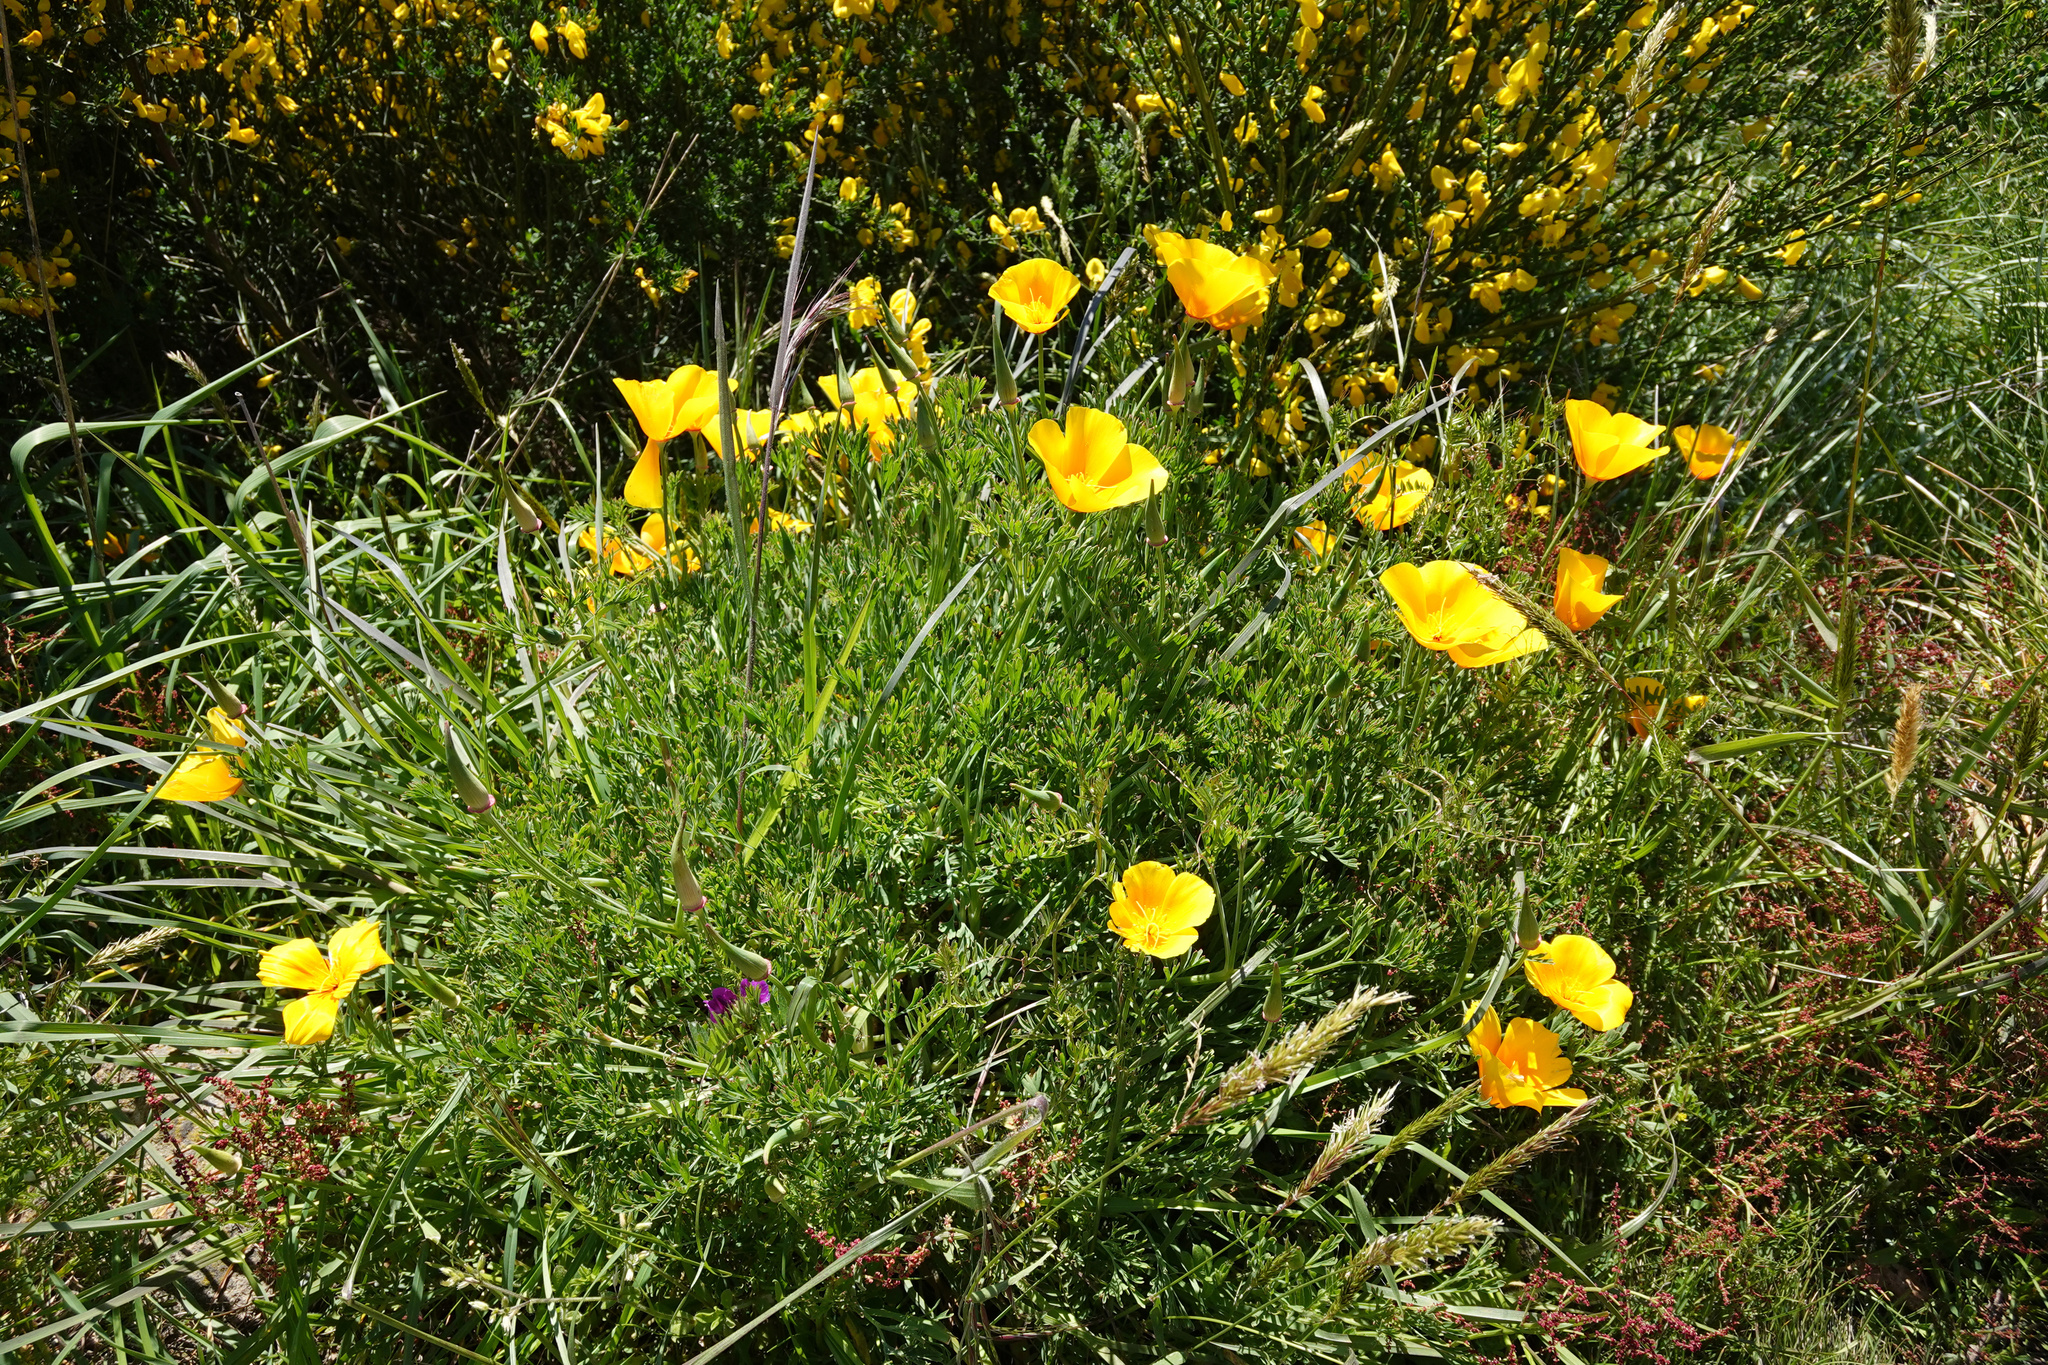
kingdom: Plantae
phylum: Tracheophyta
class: Magnoliopsida
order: Ranunculales
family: Papaveraceae
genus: Eschscholzia
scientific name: Eschscholzia californica
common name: California poppy
